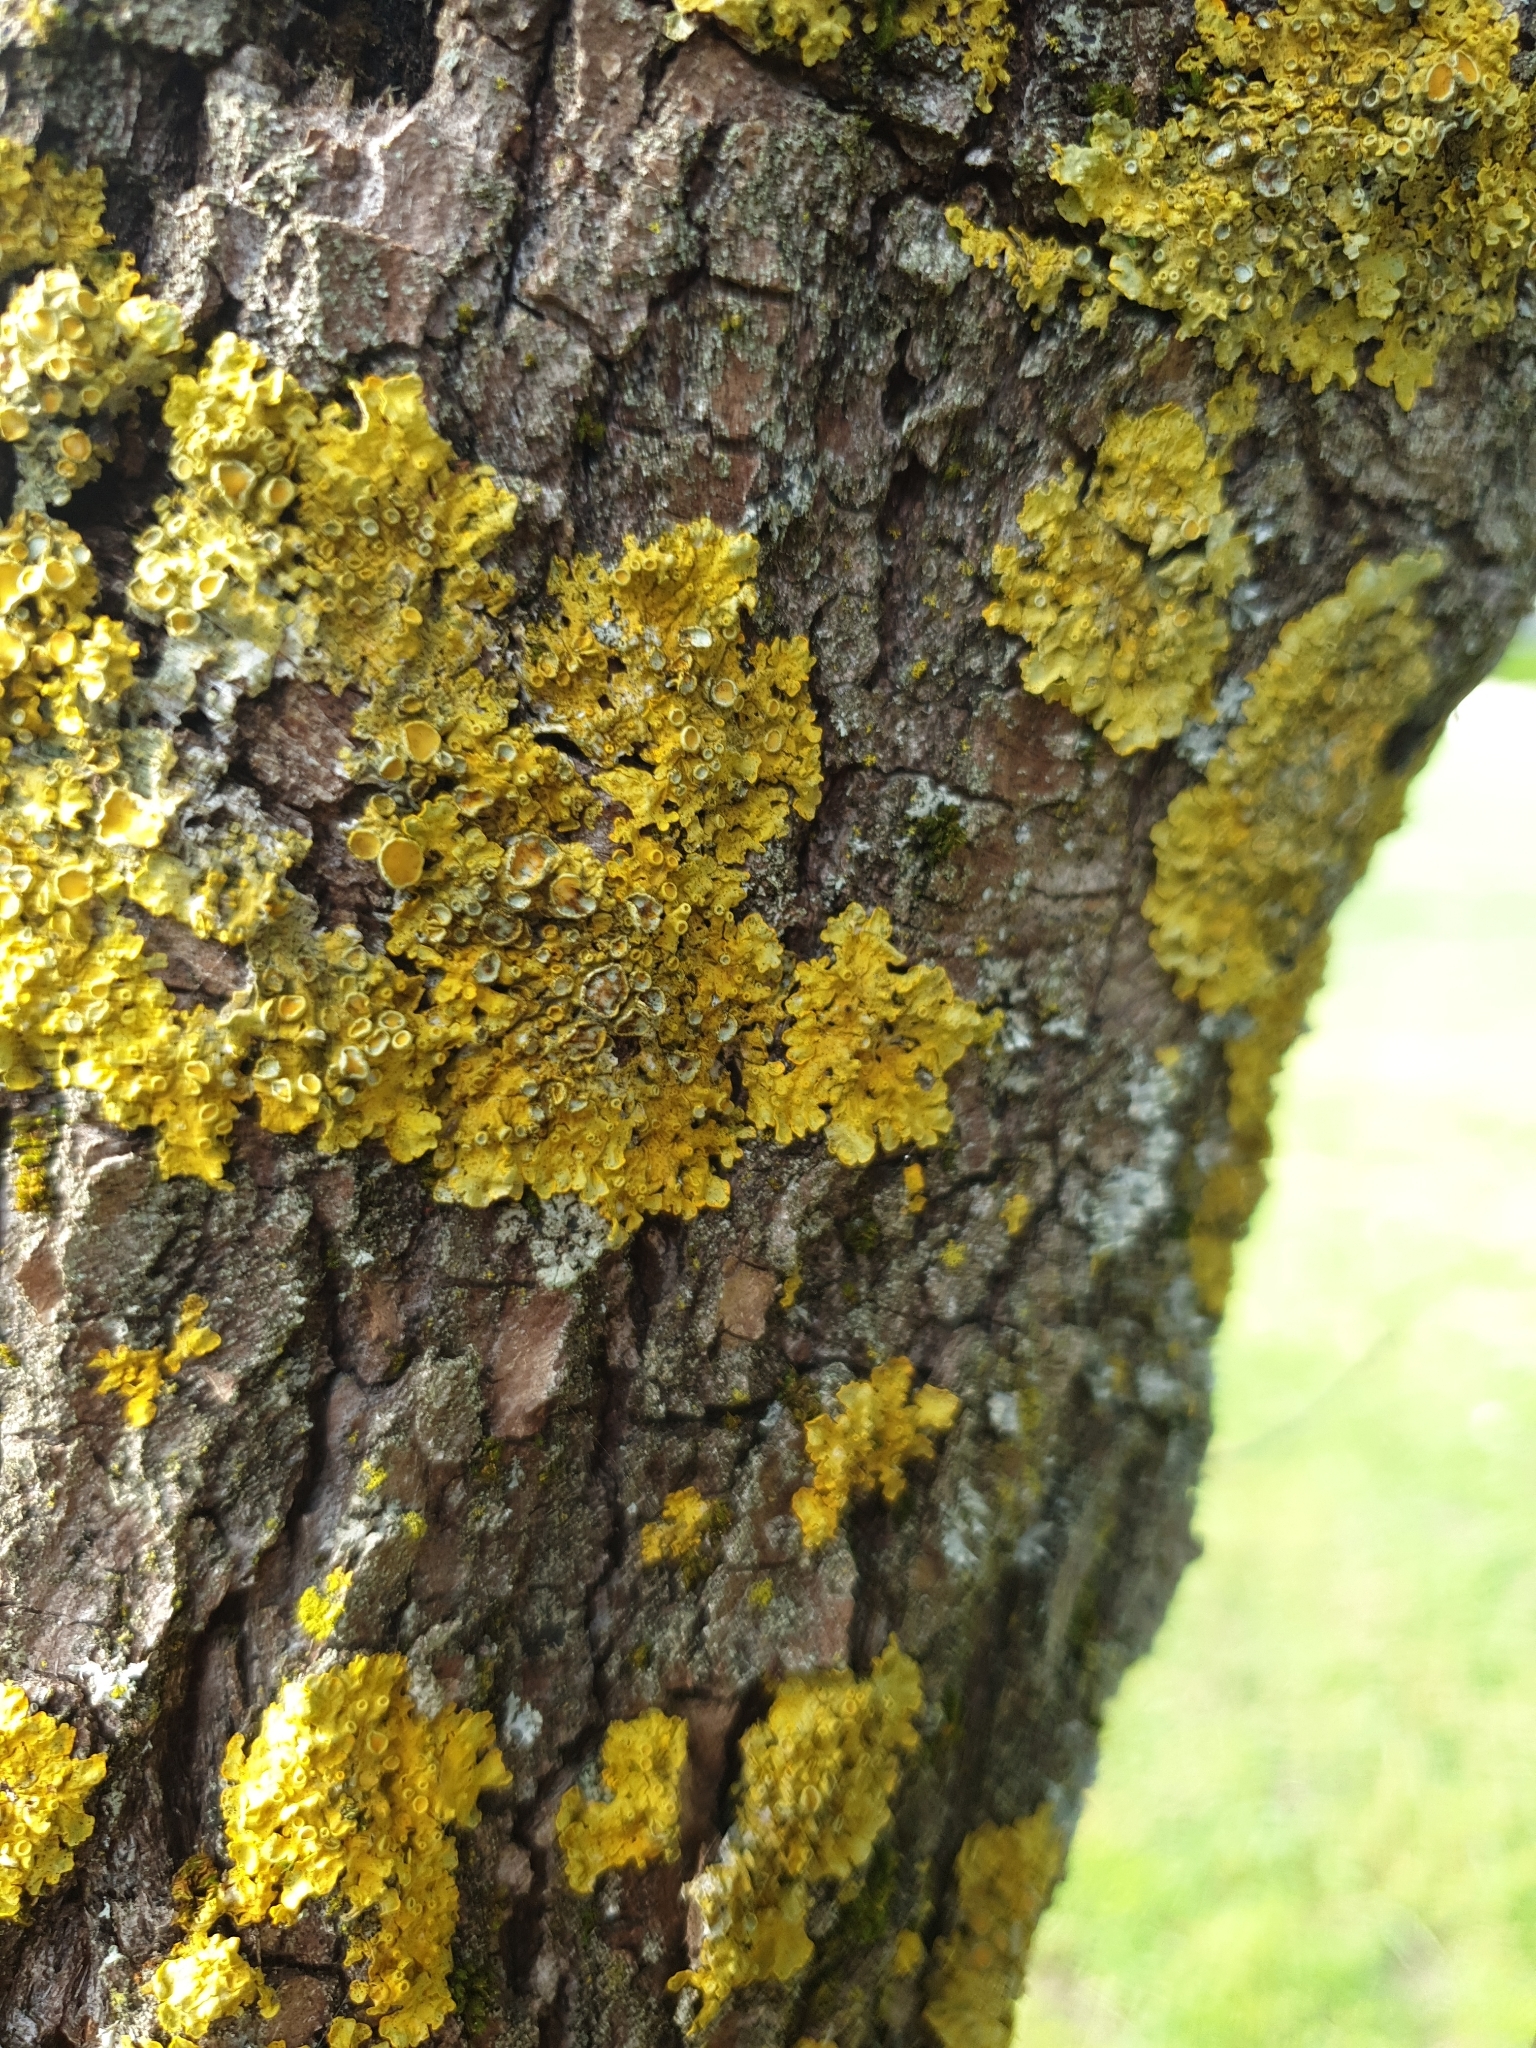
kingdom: Fungi
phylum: Ascomycota
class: Lecanoromycetes
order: Teloschistales
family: Teloschistaceae
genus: Xanthoria
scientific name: Xanthoria parietina
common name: Common orange lichen
